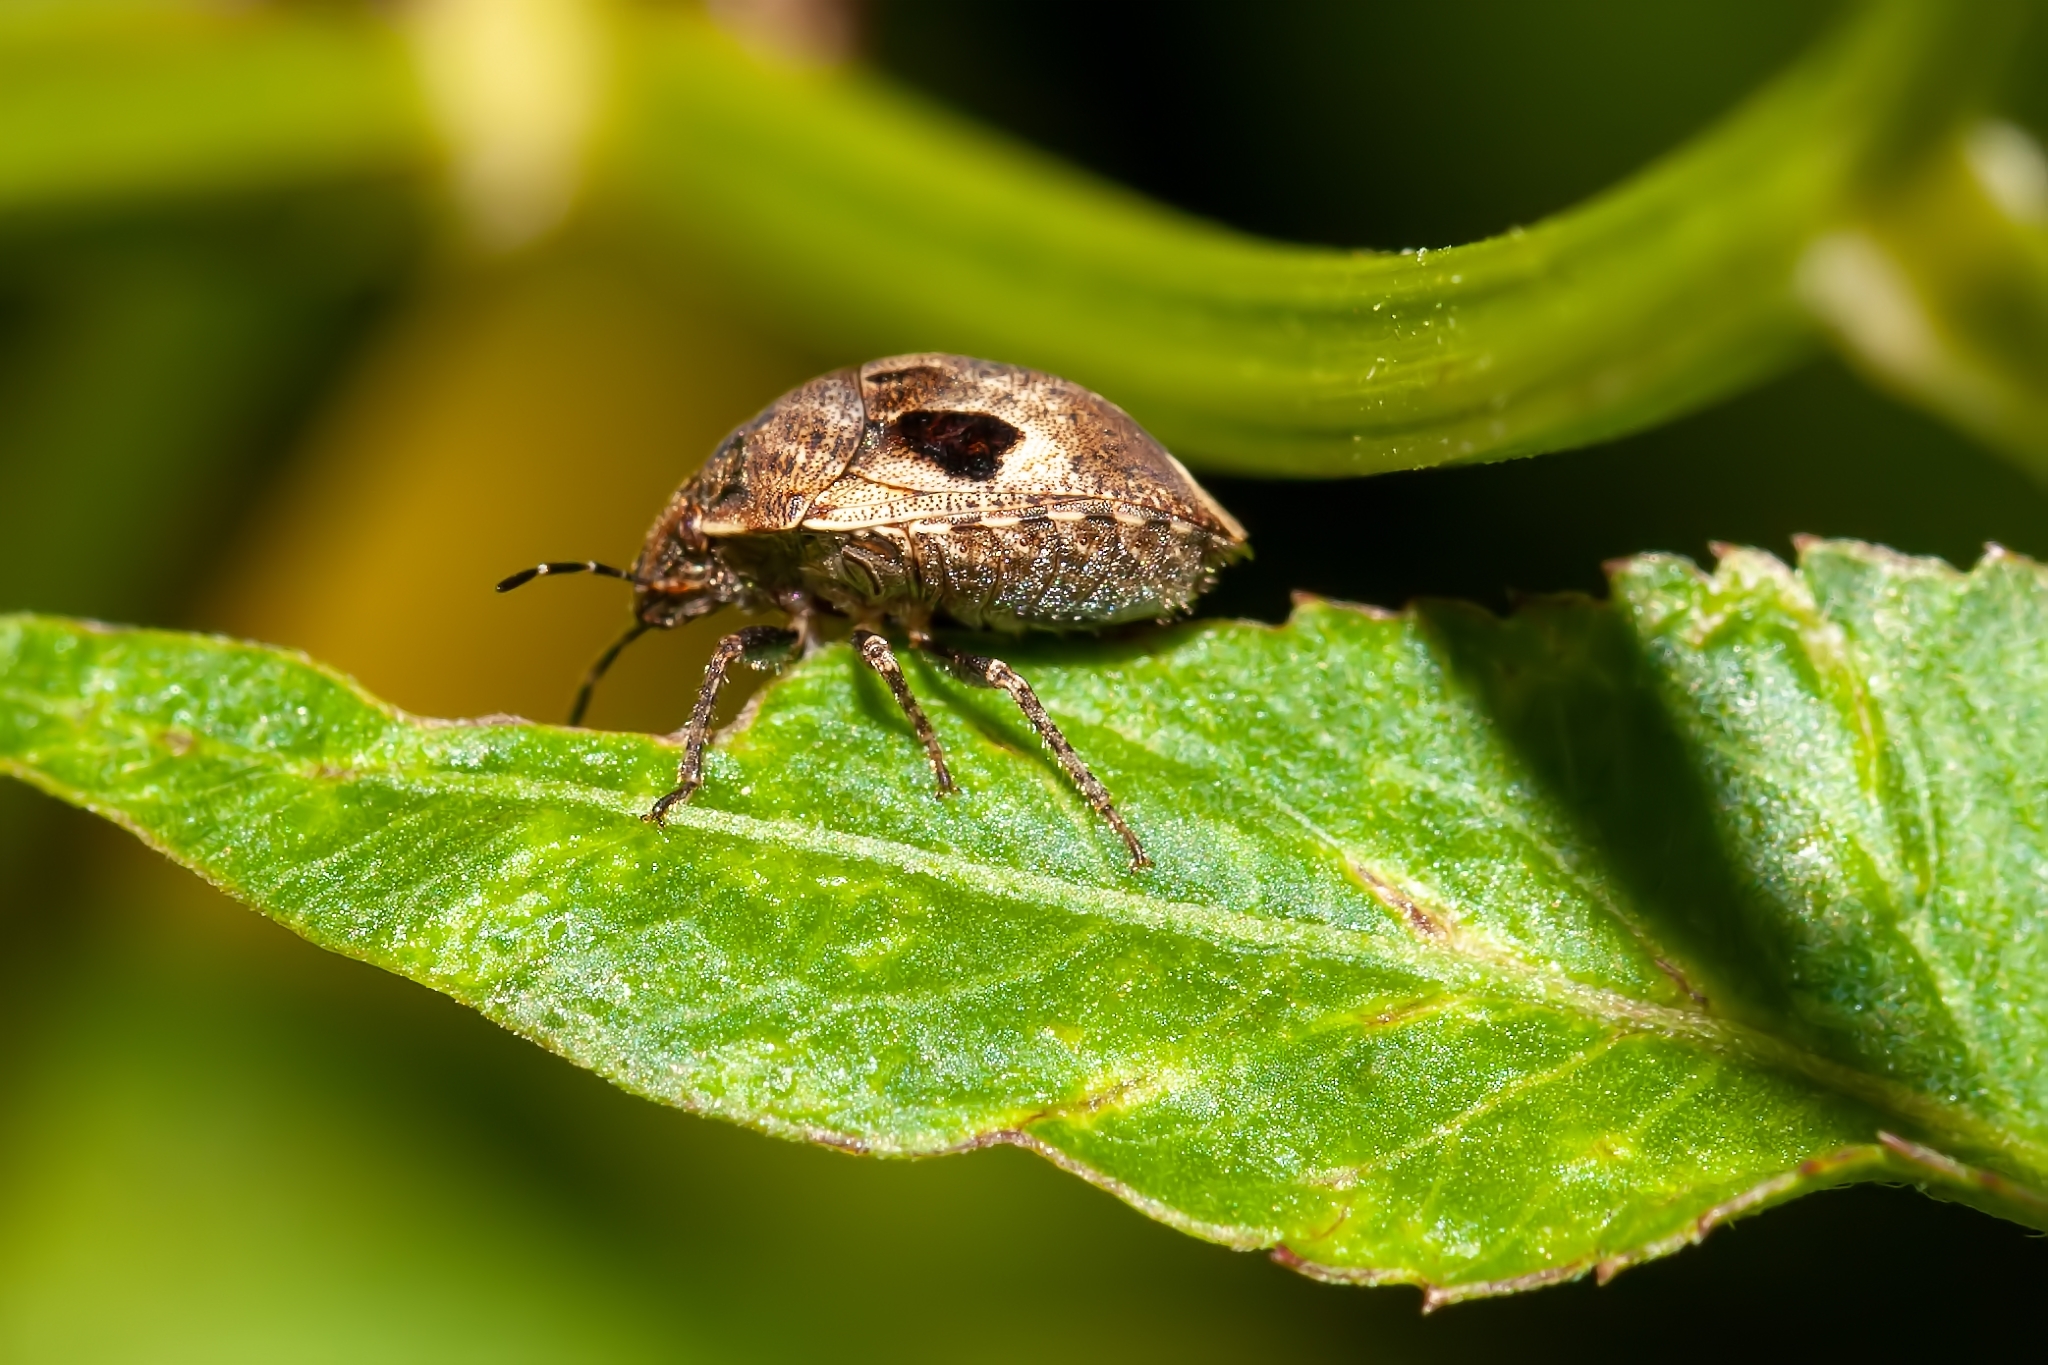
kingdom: Animalia
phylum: Arthropoda
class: Insecta
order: Hemiptera
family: Scutelleridae
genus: Homaemus
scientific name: Homaemus proteus
